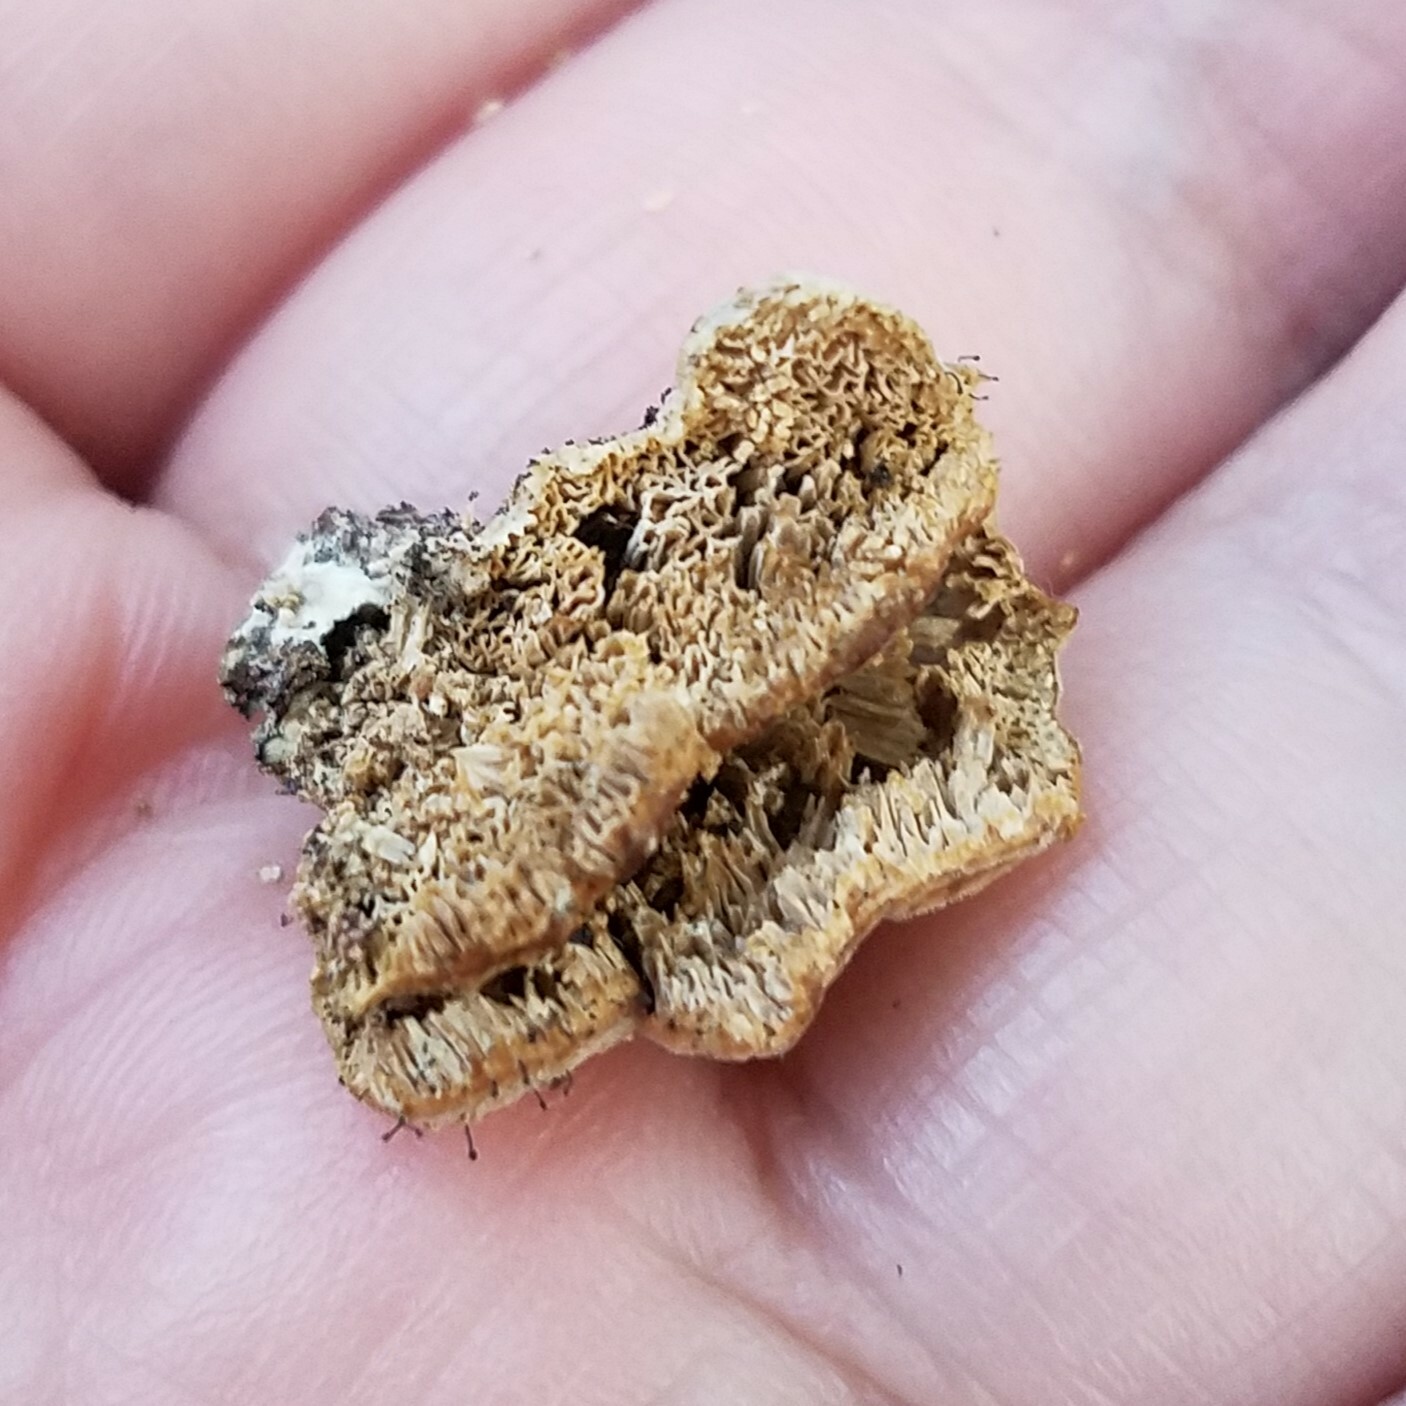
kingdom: Fungi
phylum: Ascomycota
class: Eurotiomycetes
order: Mycocaliciales
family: Mycocaliciaceae
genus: Phaeocalicium
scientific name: Phaeocalicium polyporaeum
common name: Fairy pins
